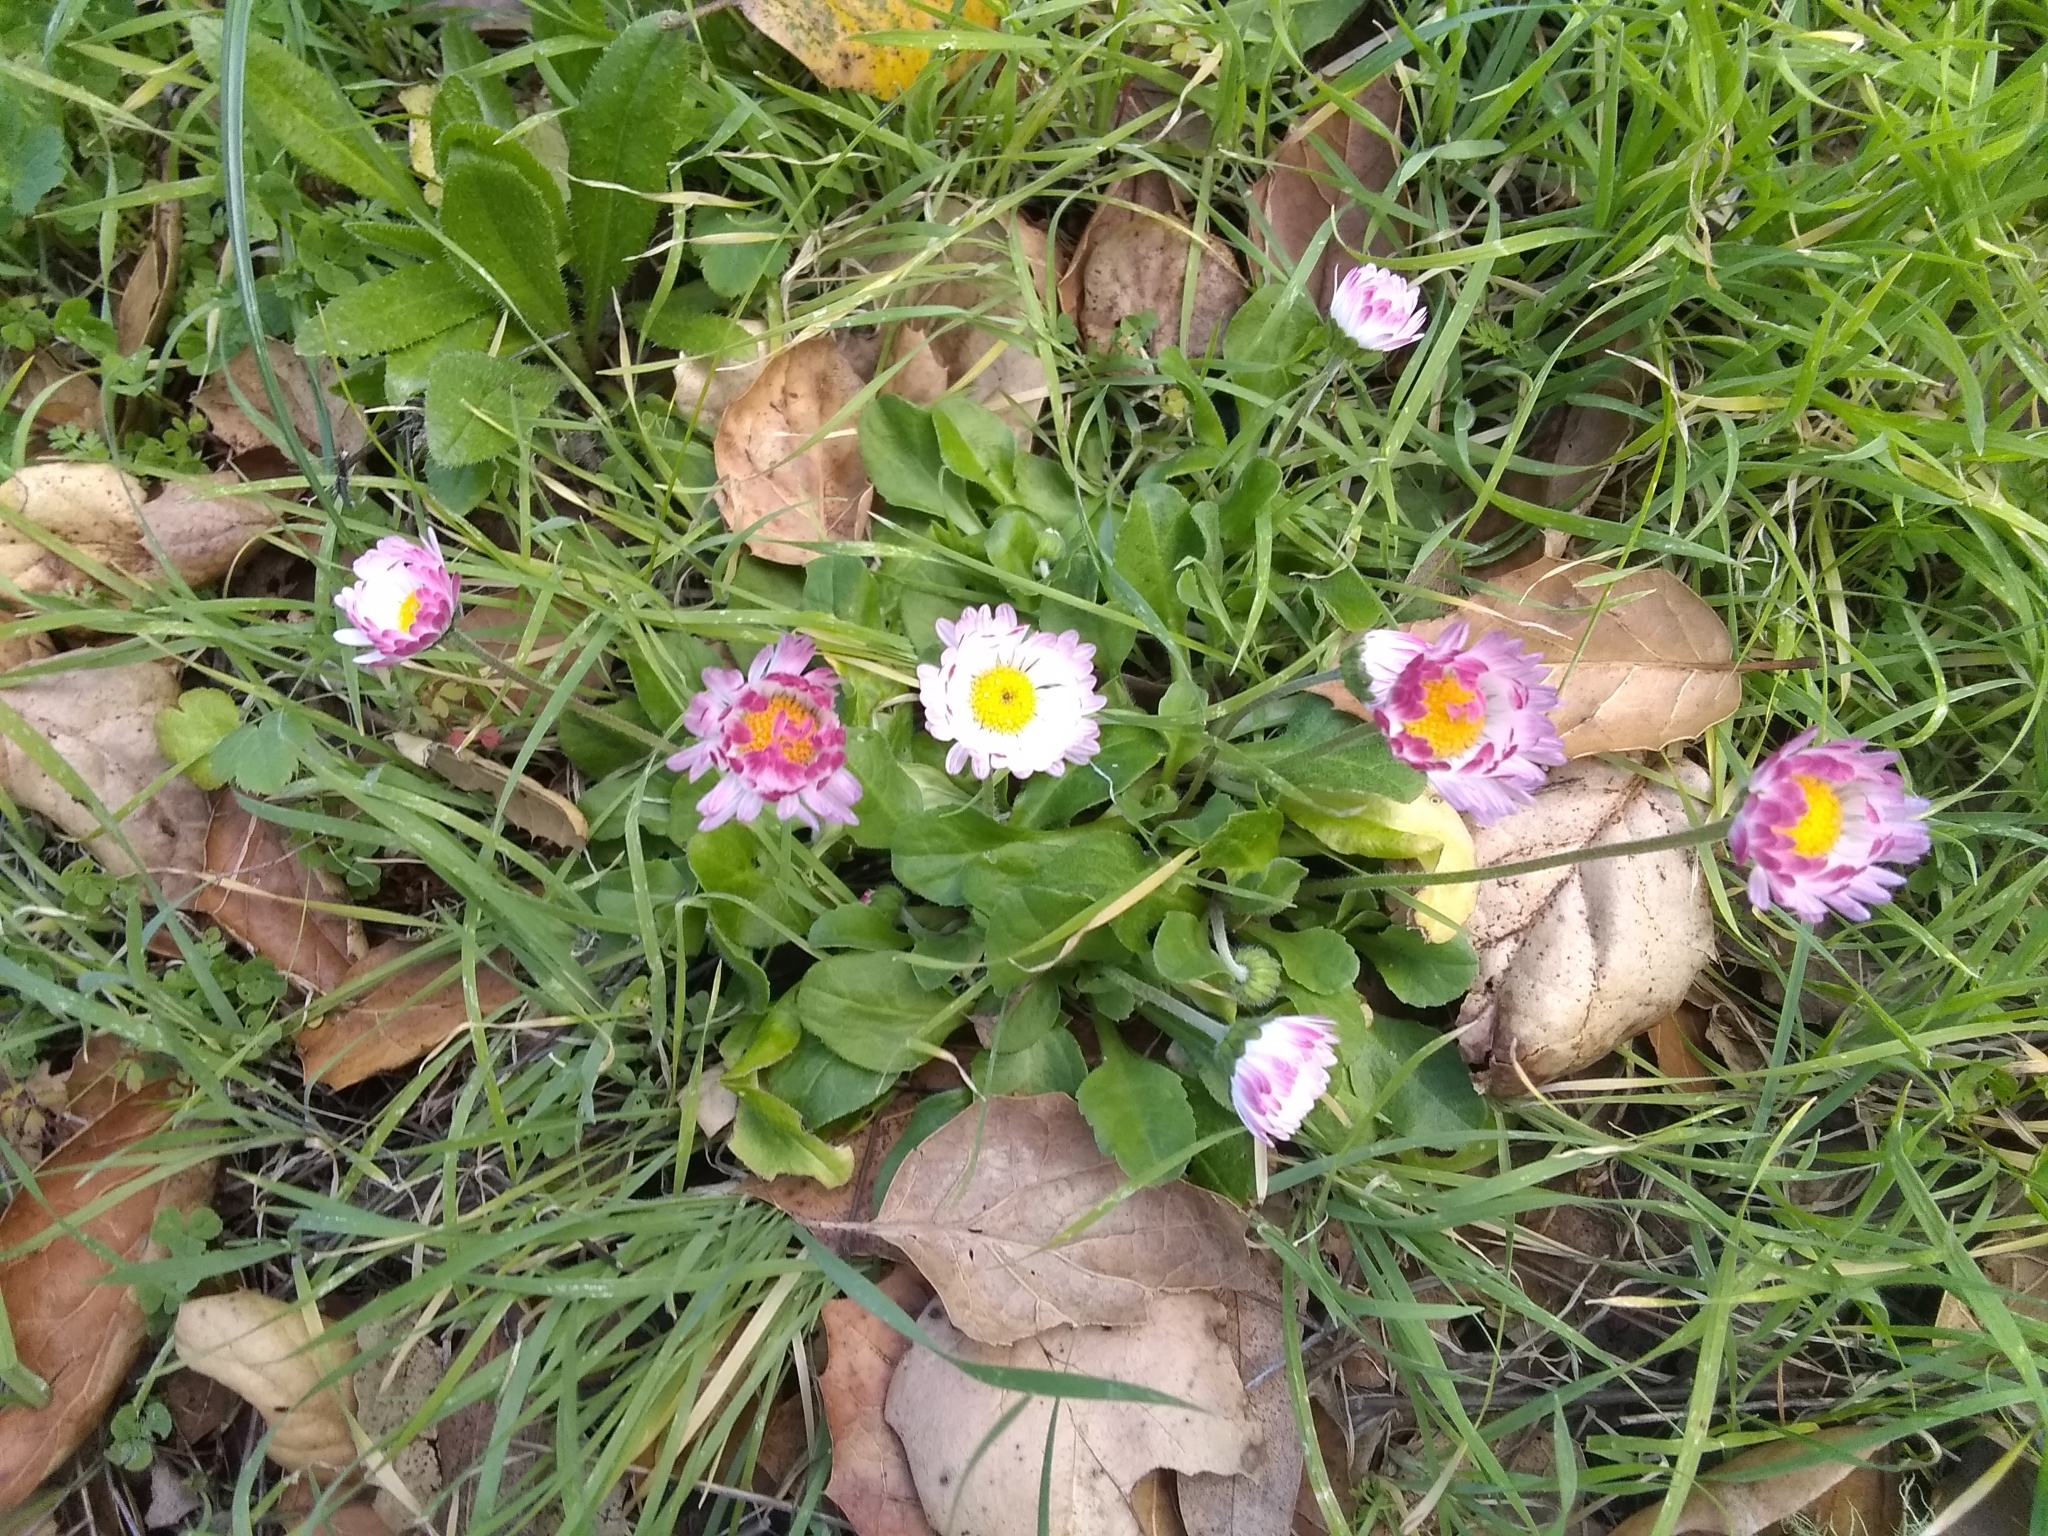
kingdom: Plantae
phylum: Tracheophyta
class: Magnoliopsida
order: Asterales
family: Asteraceae
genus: Bellis
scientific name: Bellis perennis
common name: Lawndaisy
